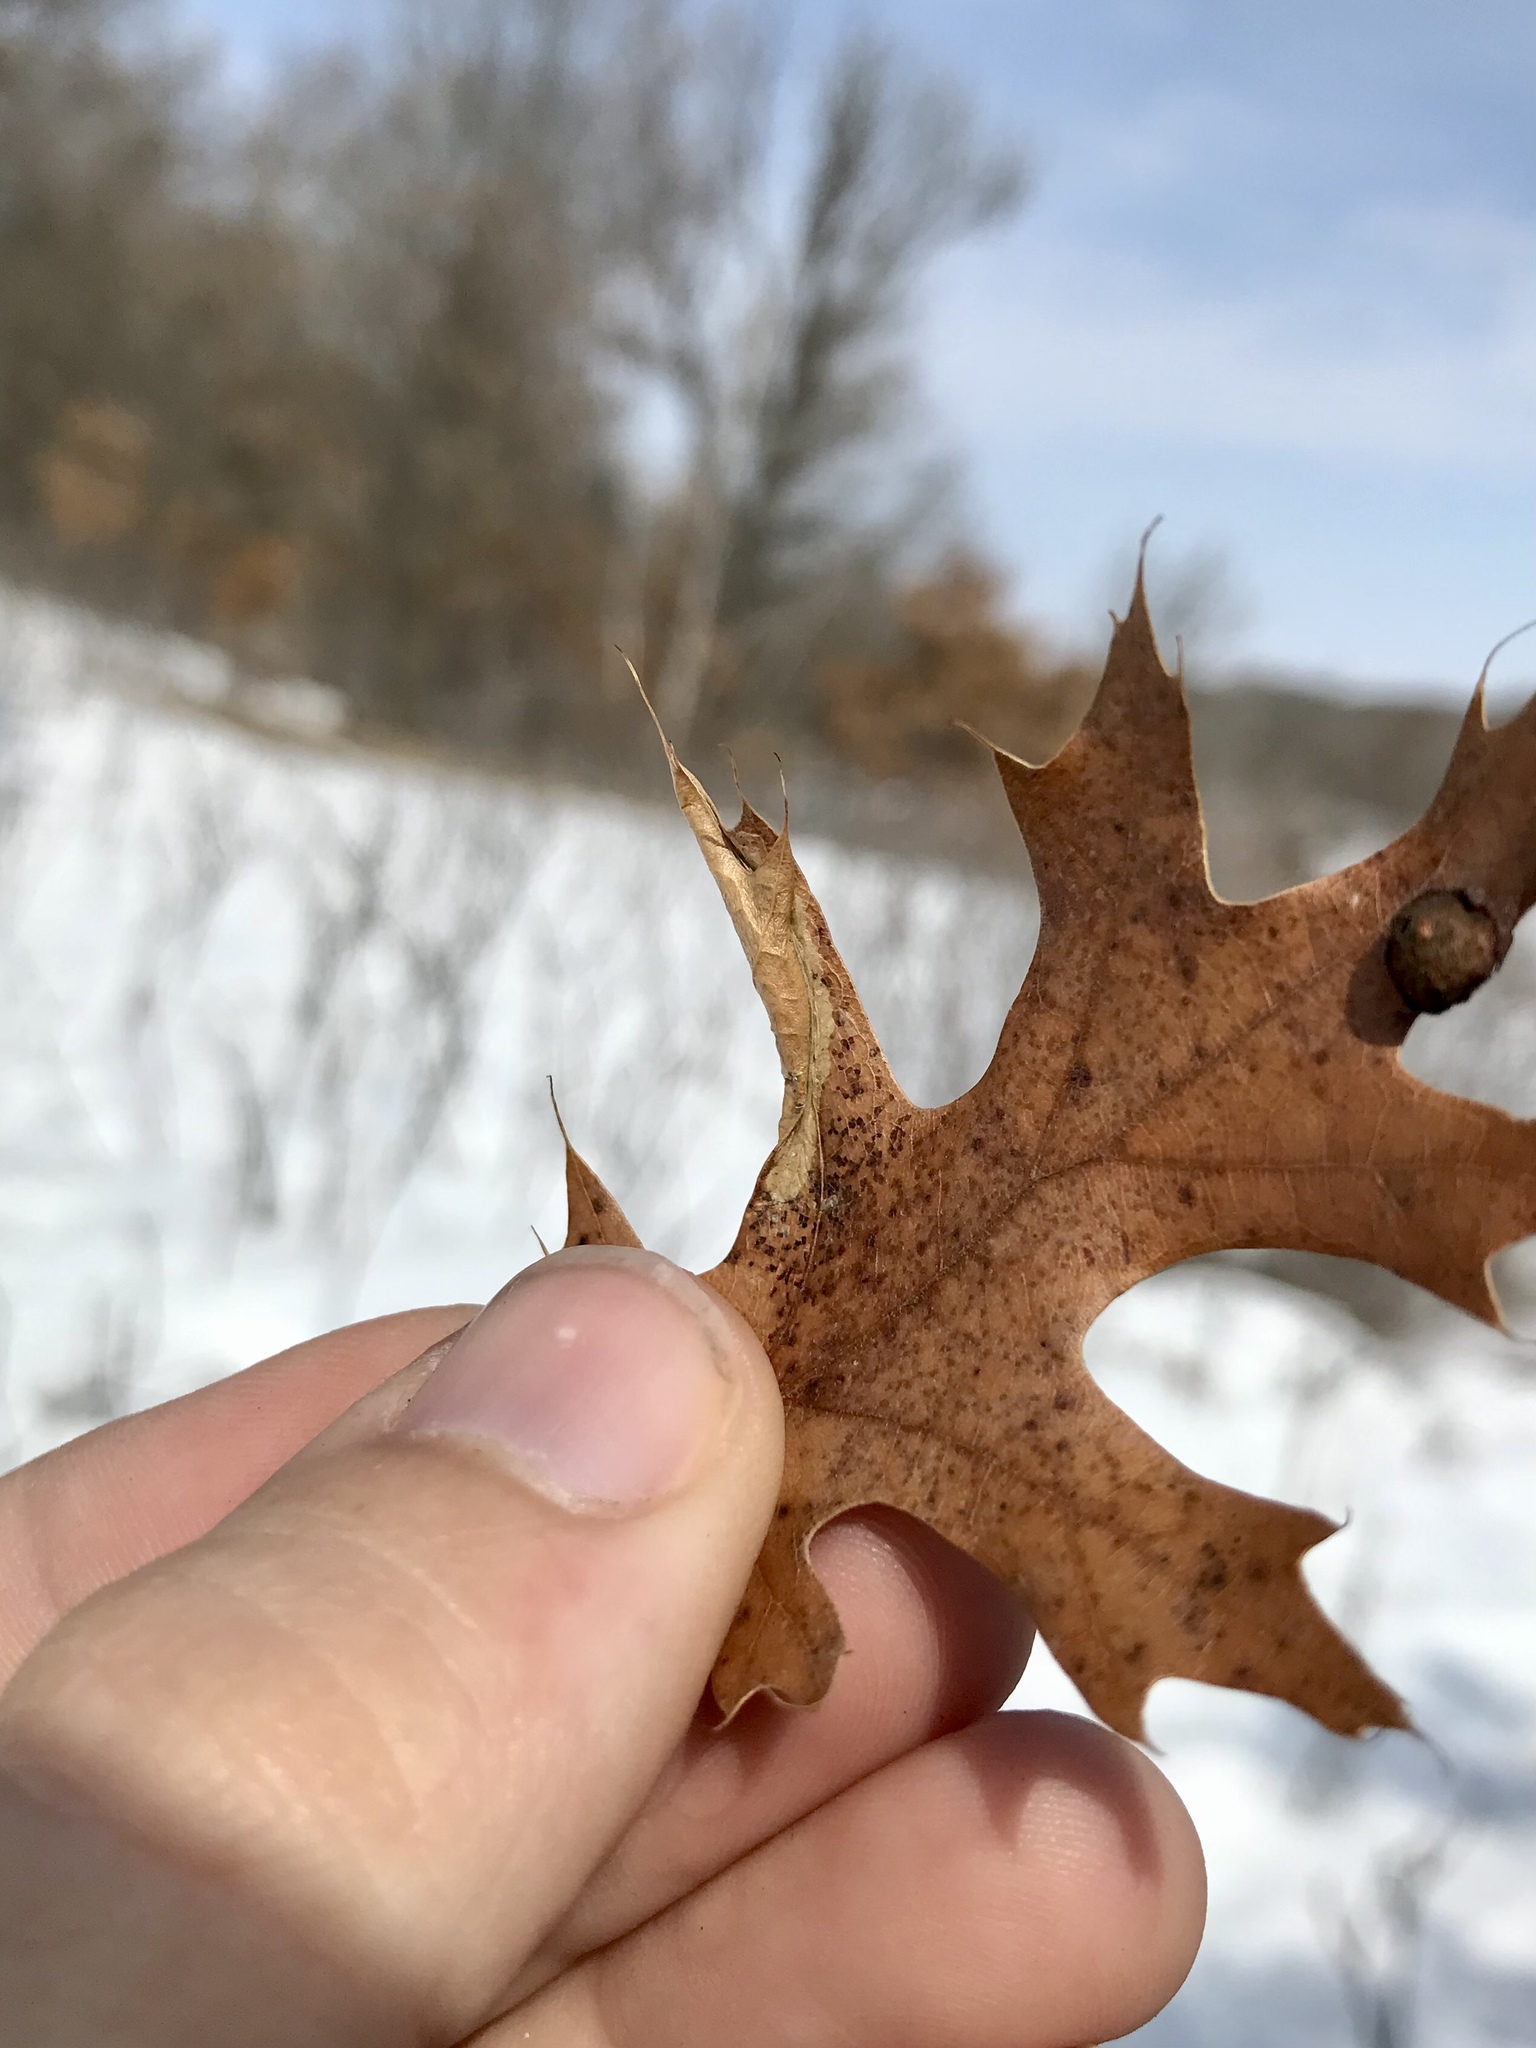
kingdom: Animalia
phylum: Arthropoda
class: Insecta
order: Lepidoptera
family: Tischeriidae
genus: Coptotriche
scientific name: Coptotriche citrinipennella
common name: The golden sweeper
